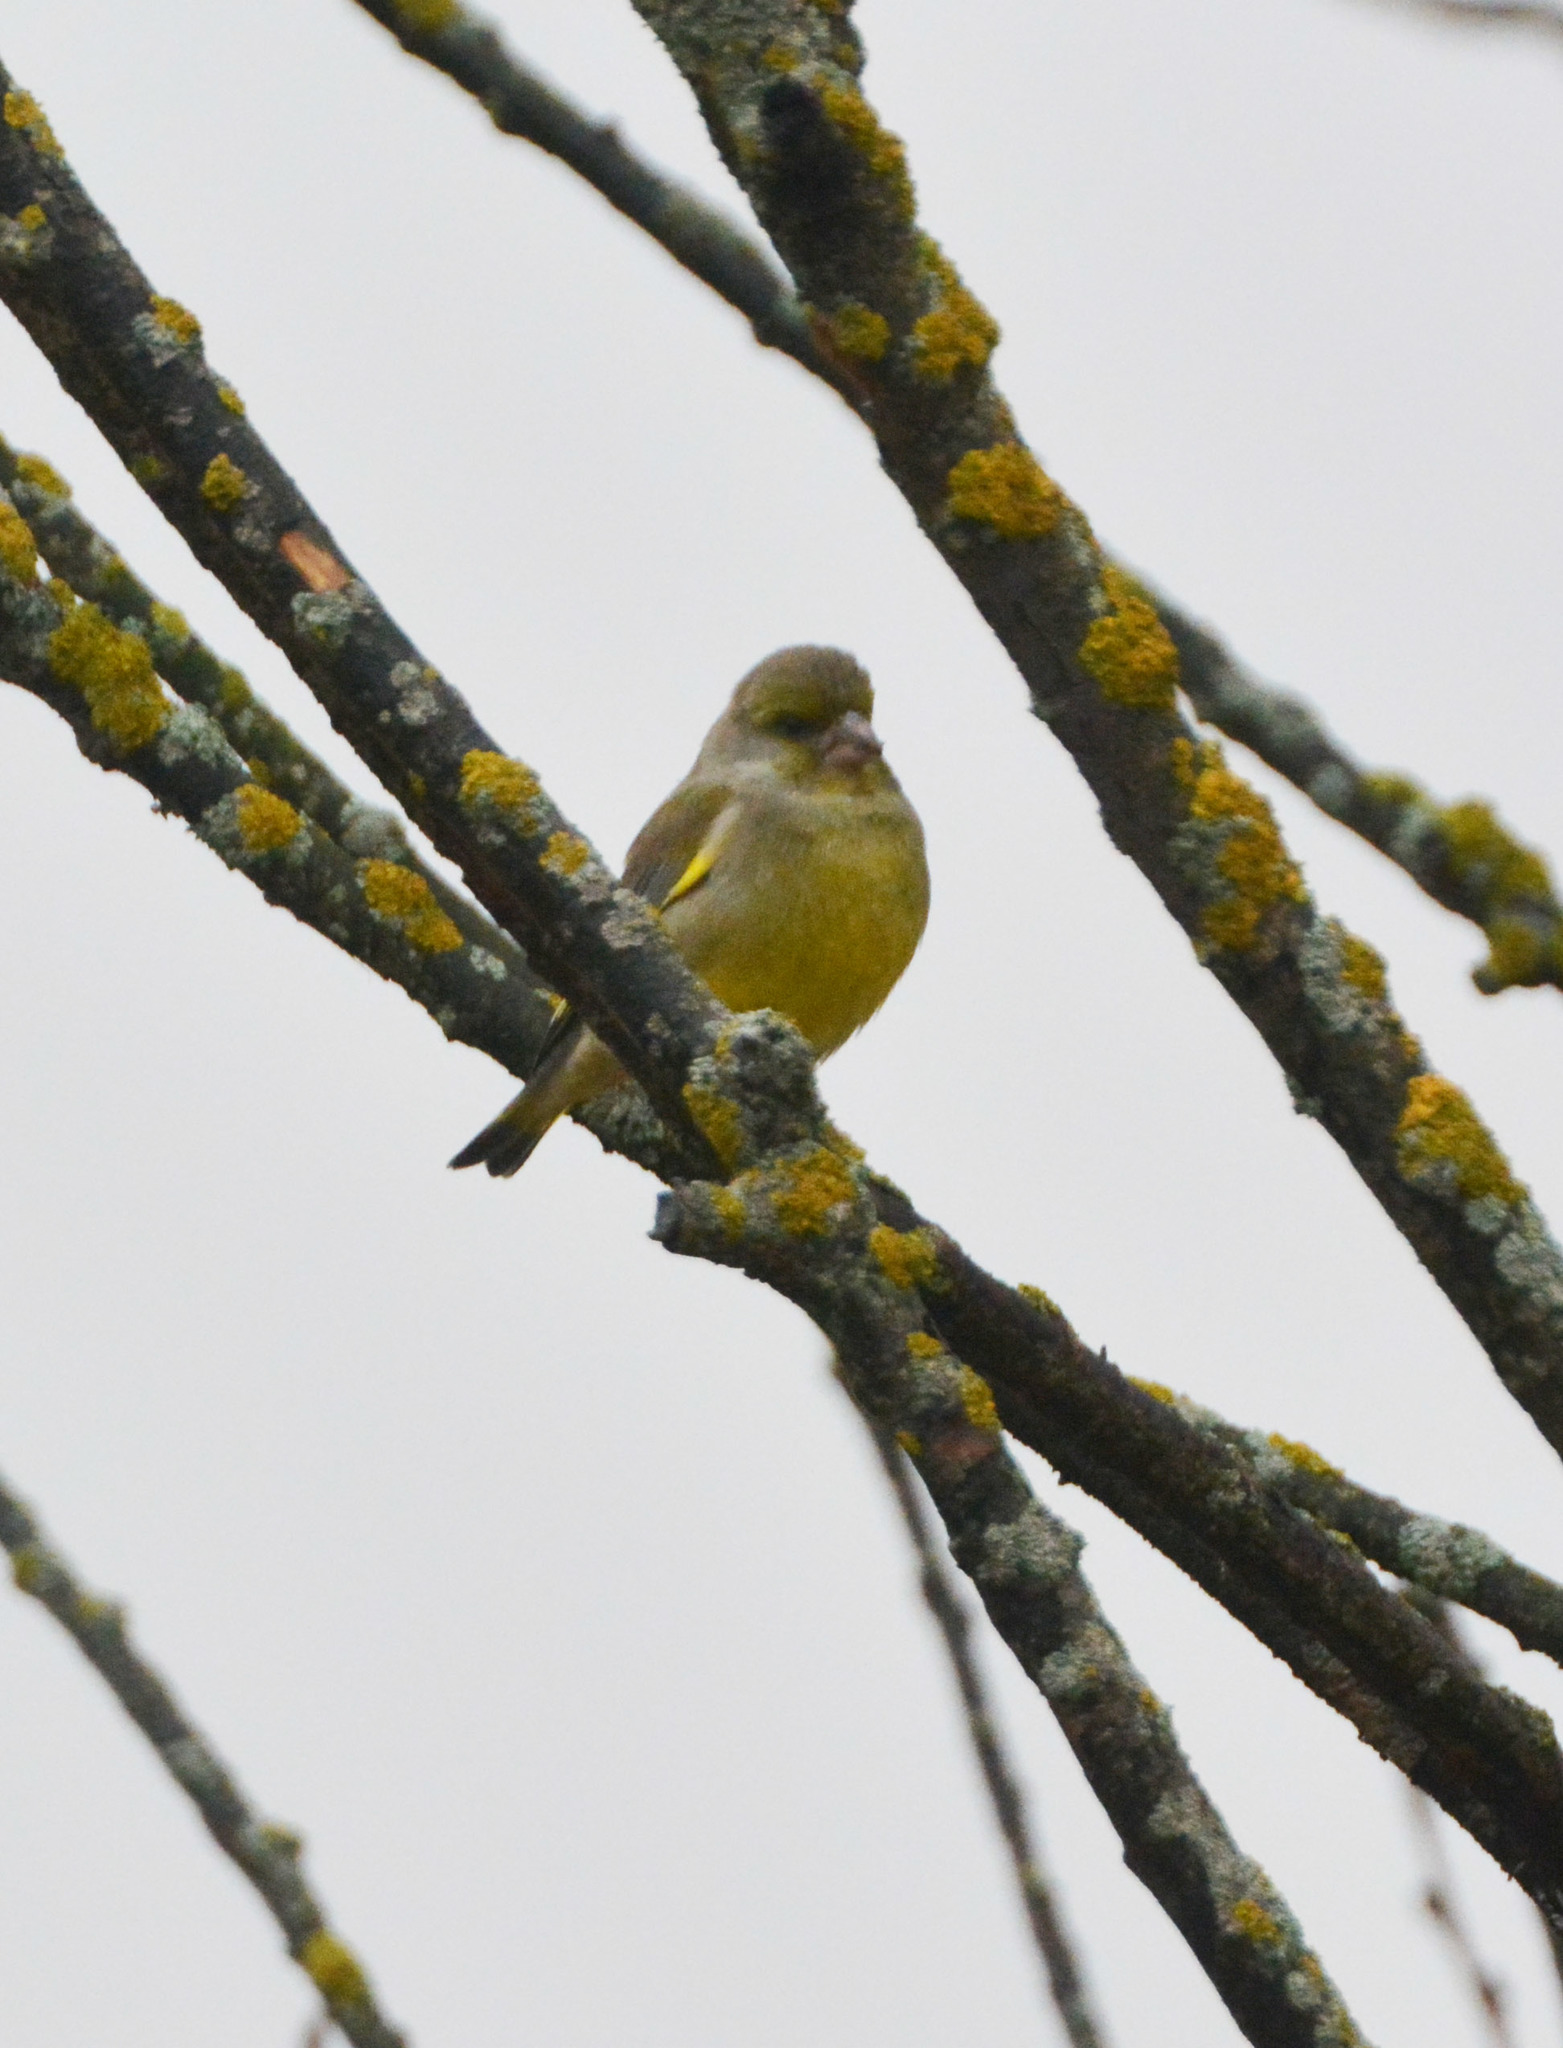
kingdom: Plantae
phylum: Tracheophyta
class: Liliopsida
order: Poales
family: Poaceae
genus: Chloris
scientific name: Chloris chloris
